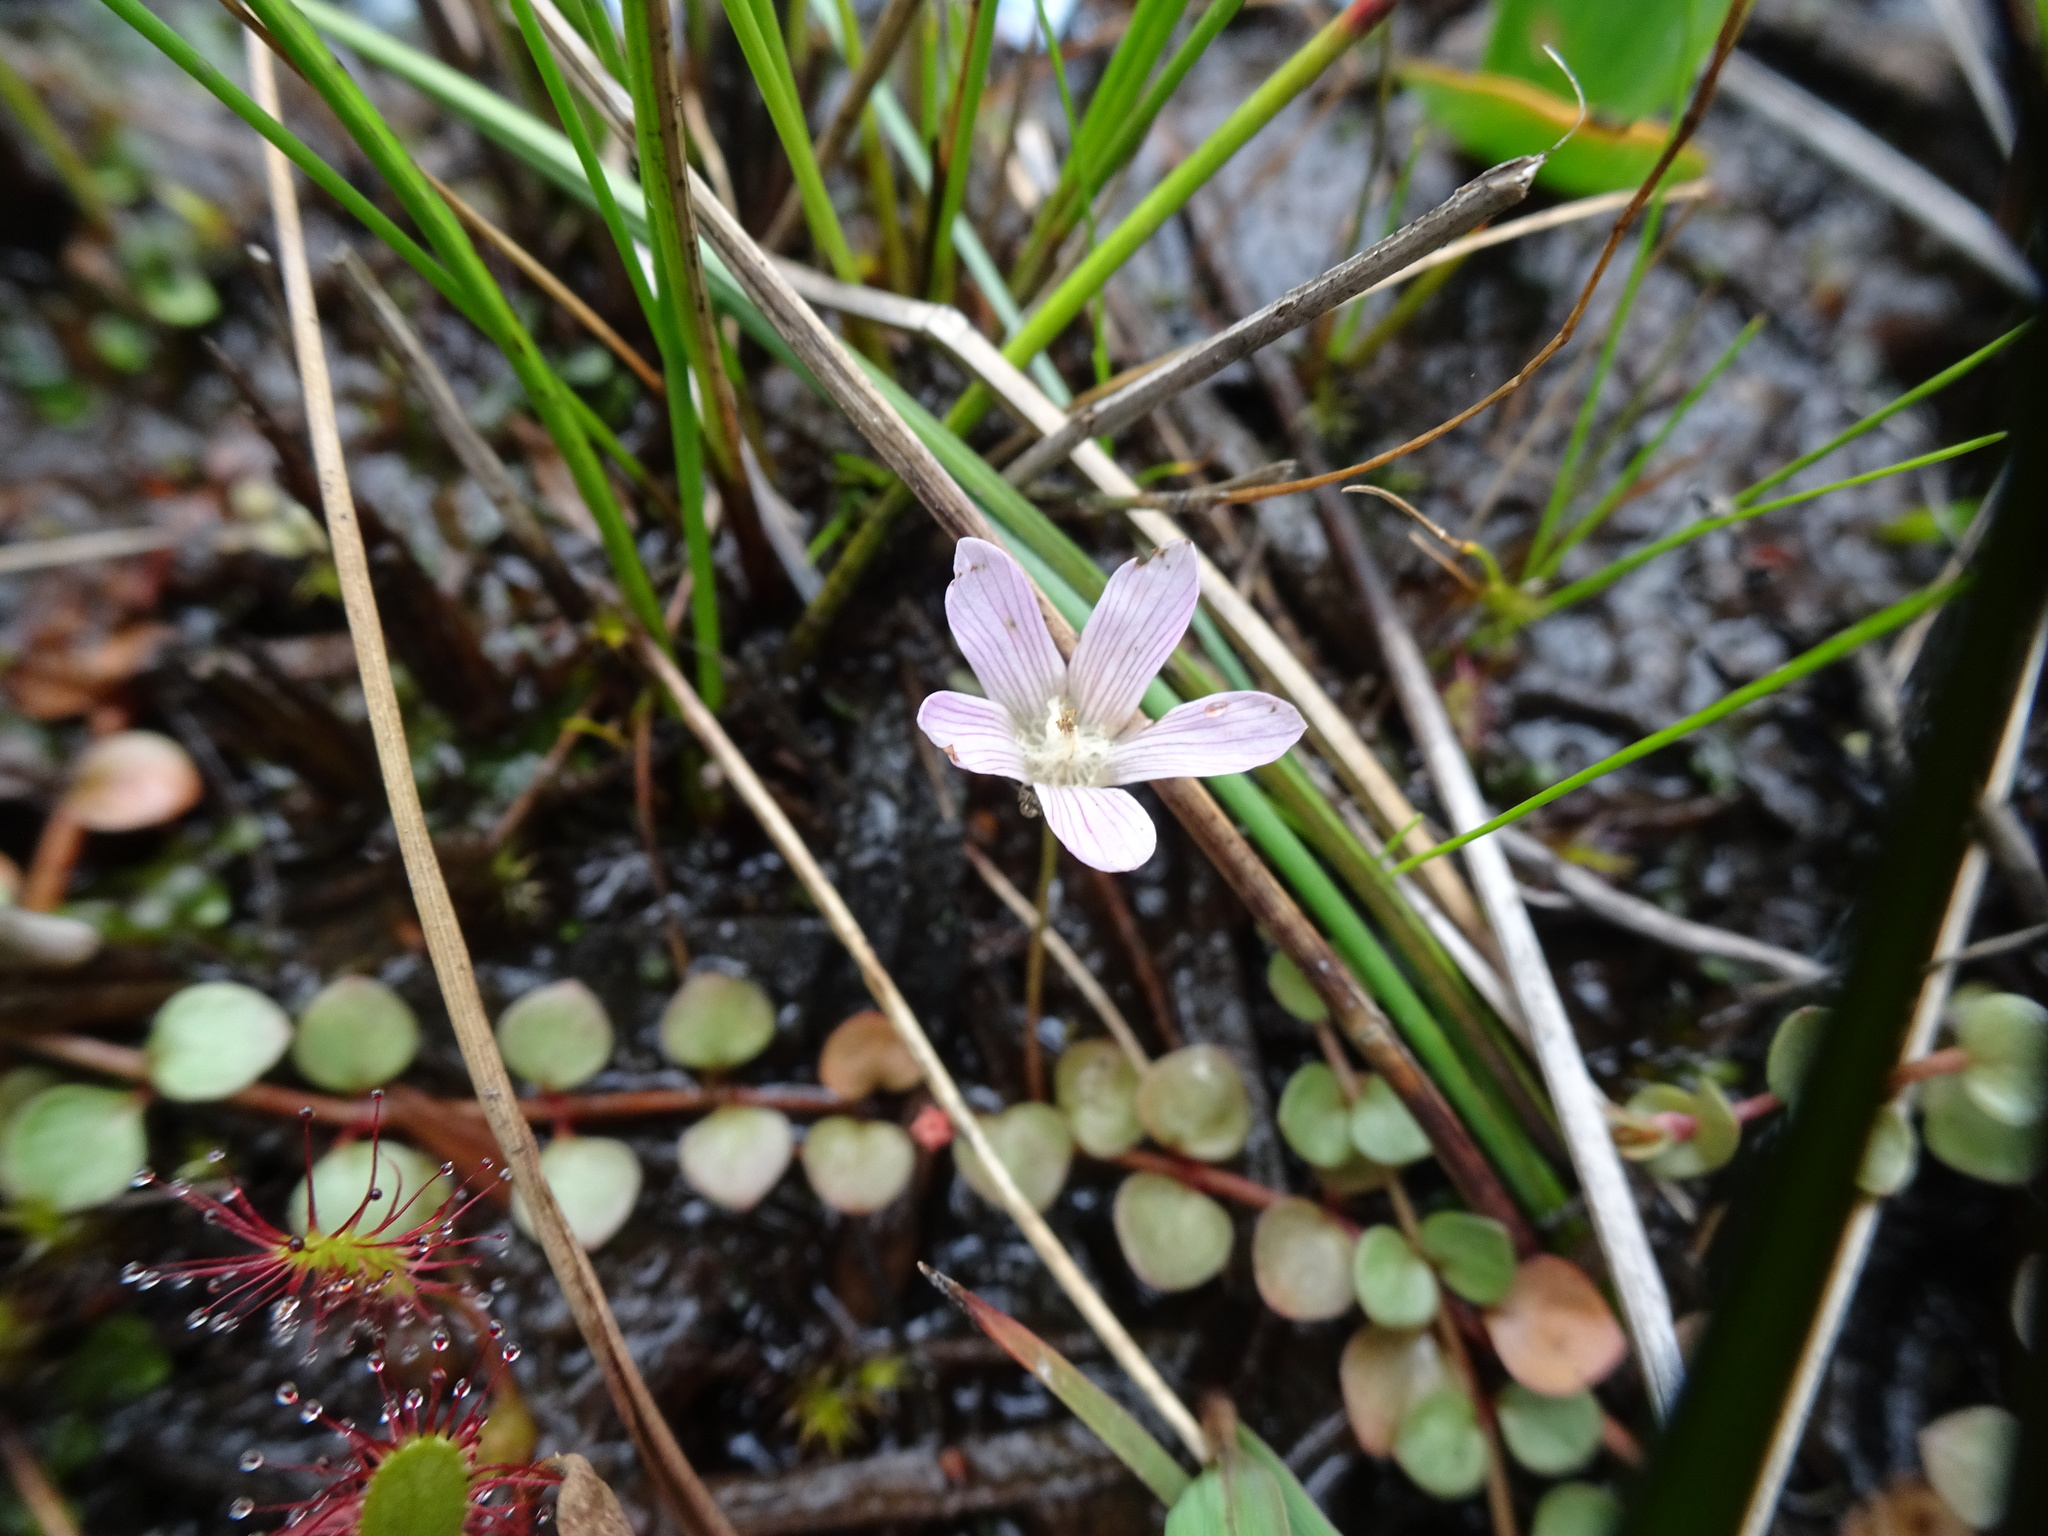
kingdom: Plantae
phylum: Tracheophyta
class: Magnoliopsida
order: Ericales
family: Primulaceae
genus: Lysimachia
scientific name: Lysimachia tenella
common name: European bog pimpernel
